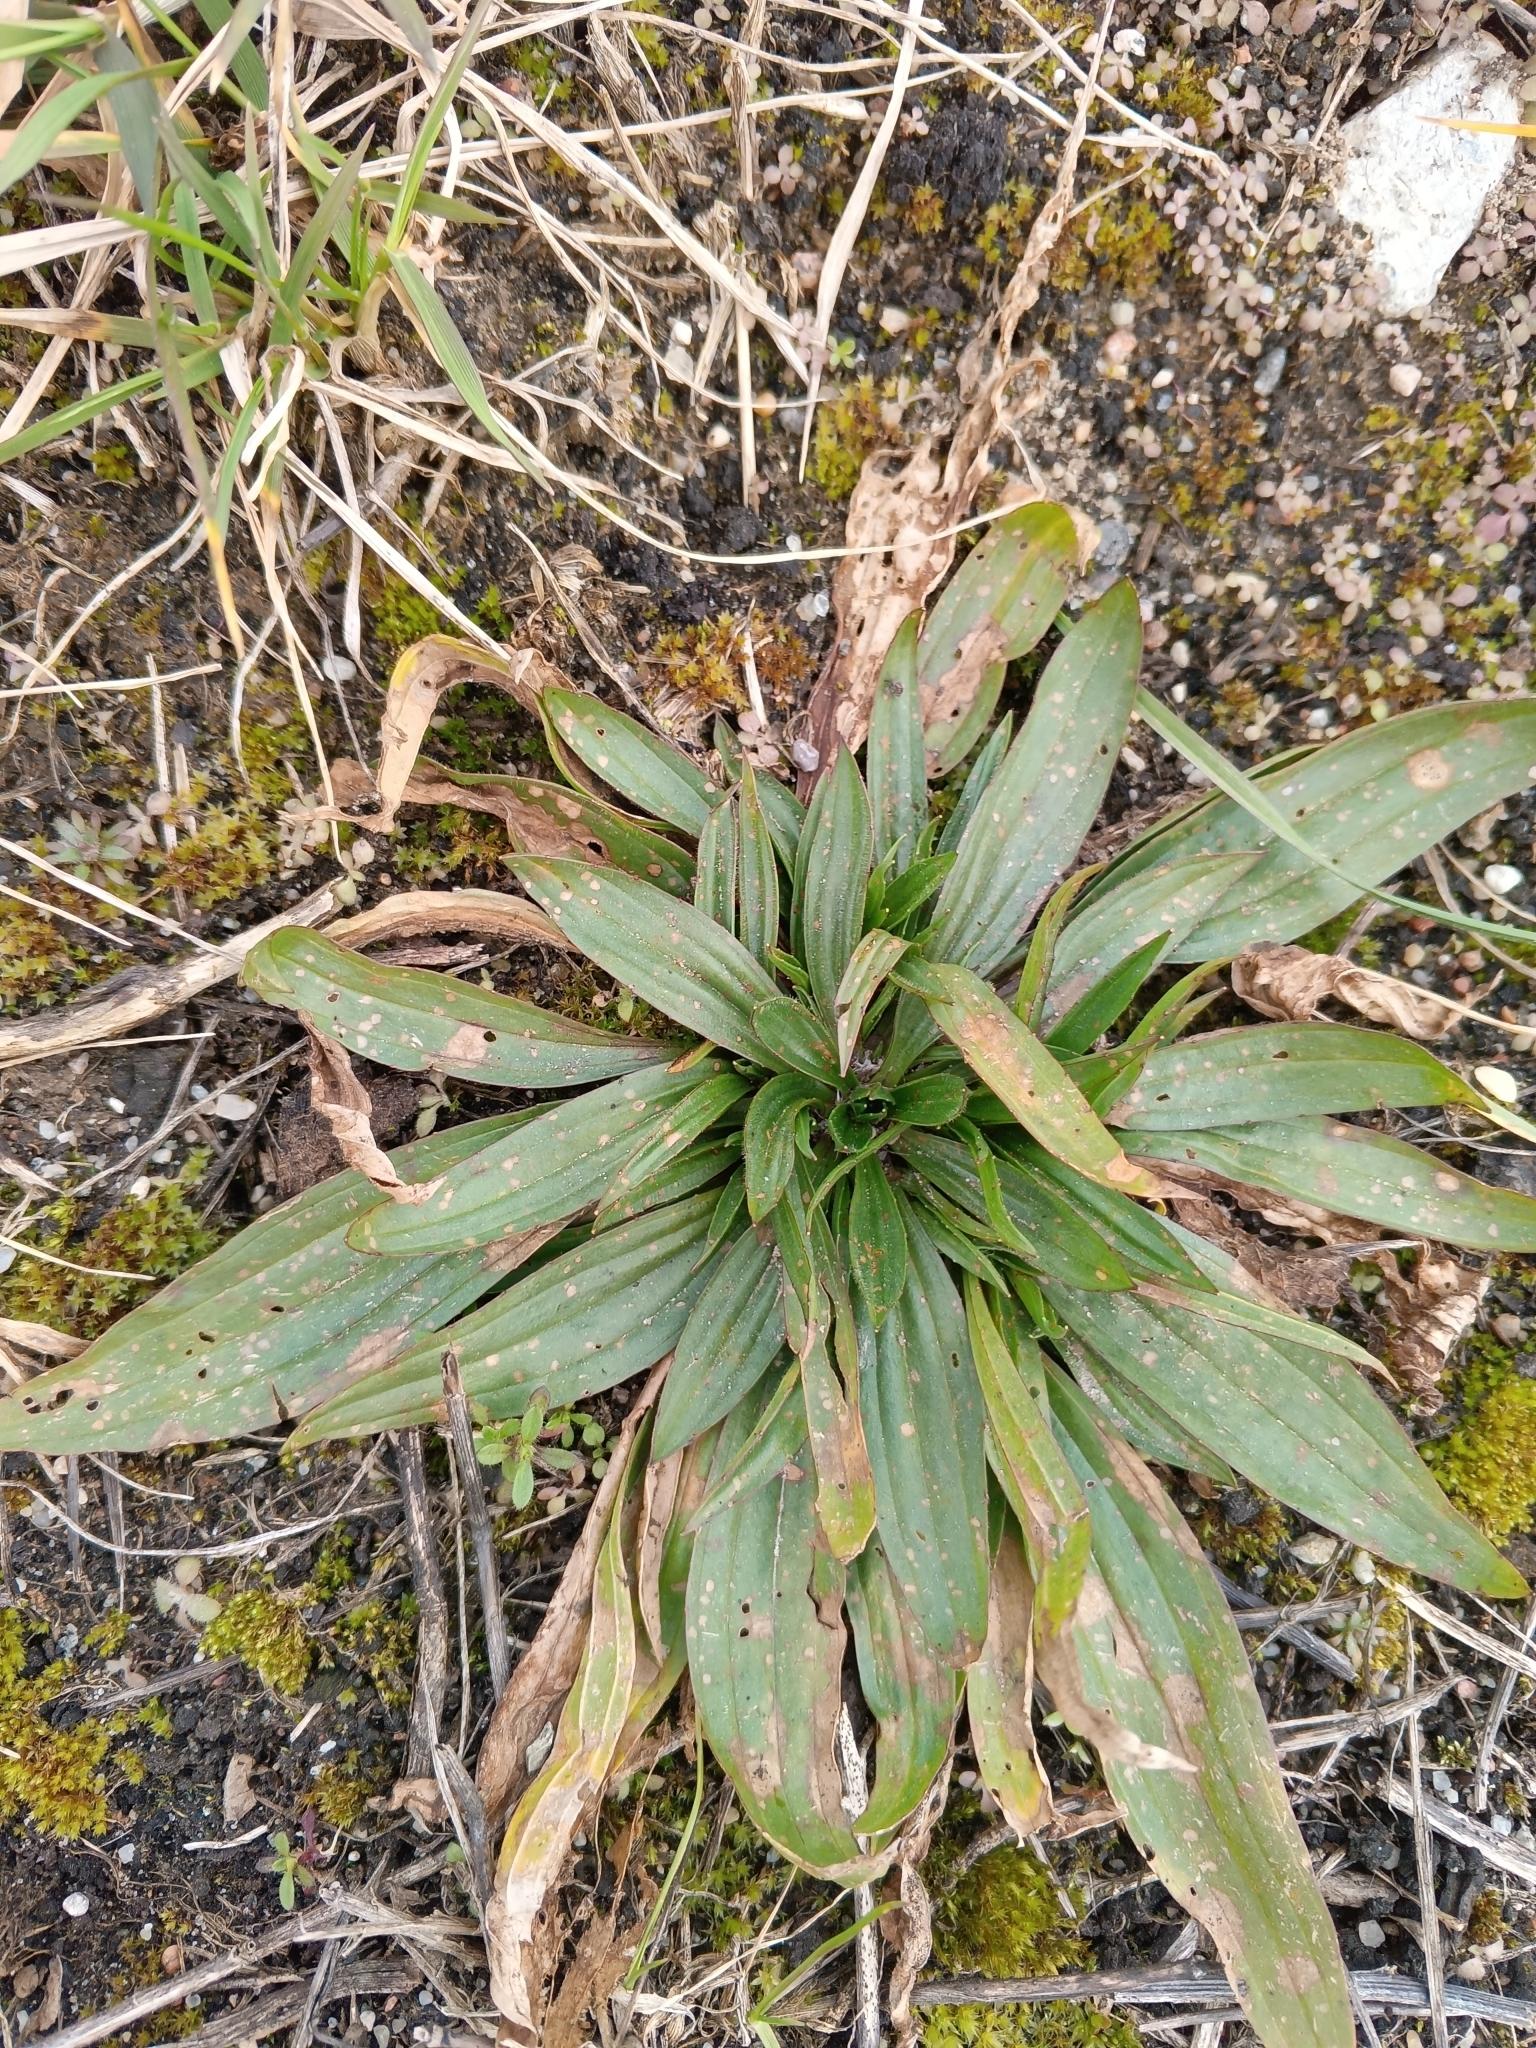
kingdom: Plantae
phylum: Tracheophyta
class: Magnoliopsida
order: Lamiales
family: Plantaginaceae
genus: Plantago
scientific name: Plantago lanceolata
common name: Ribwort plantain
